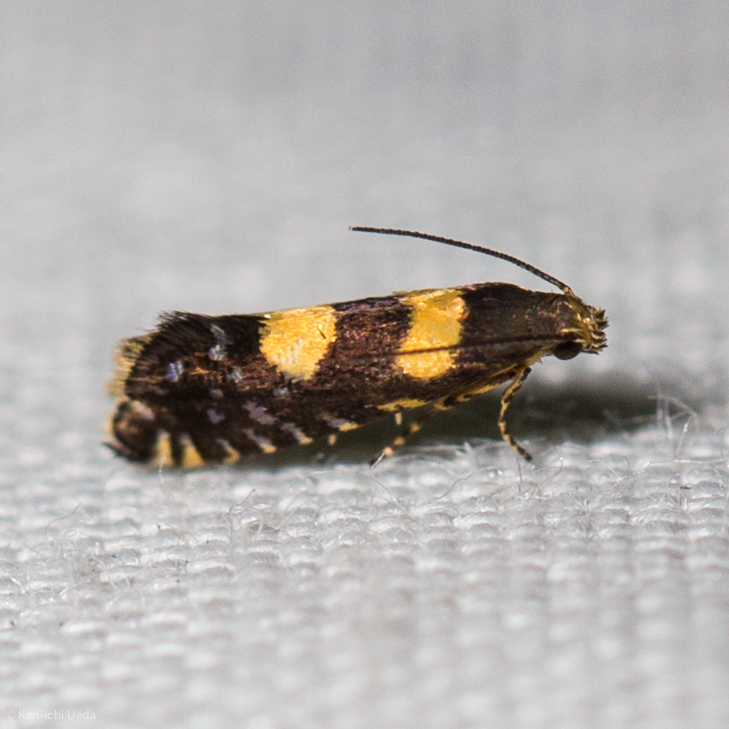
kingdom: Animalia
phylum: Arthropoda
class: Insecta
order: Lepidoptera
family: Glyphipterigidae
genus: Glyphipterix
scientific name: Glyphipterix chrysoplanetis
